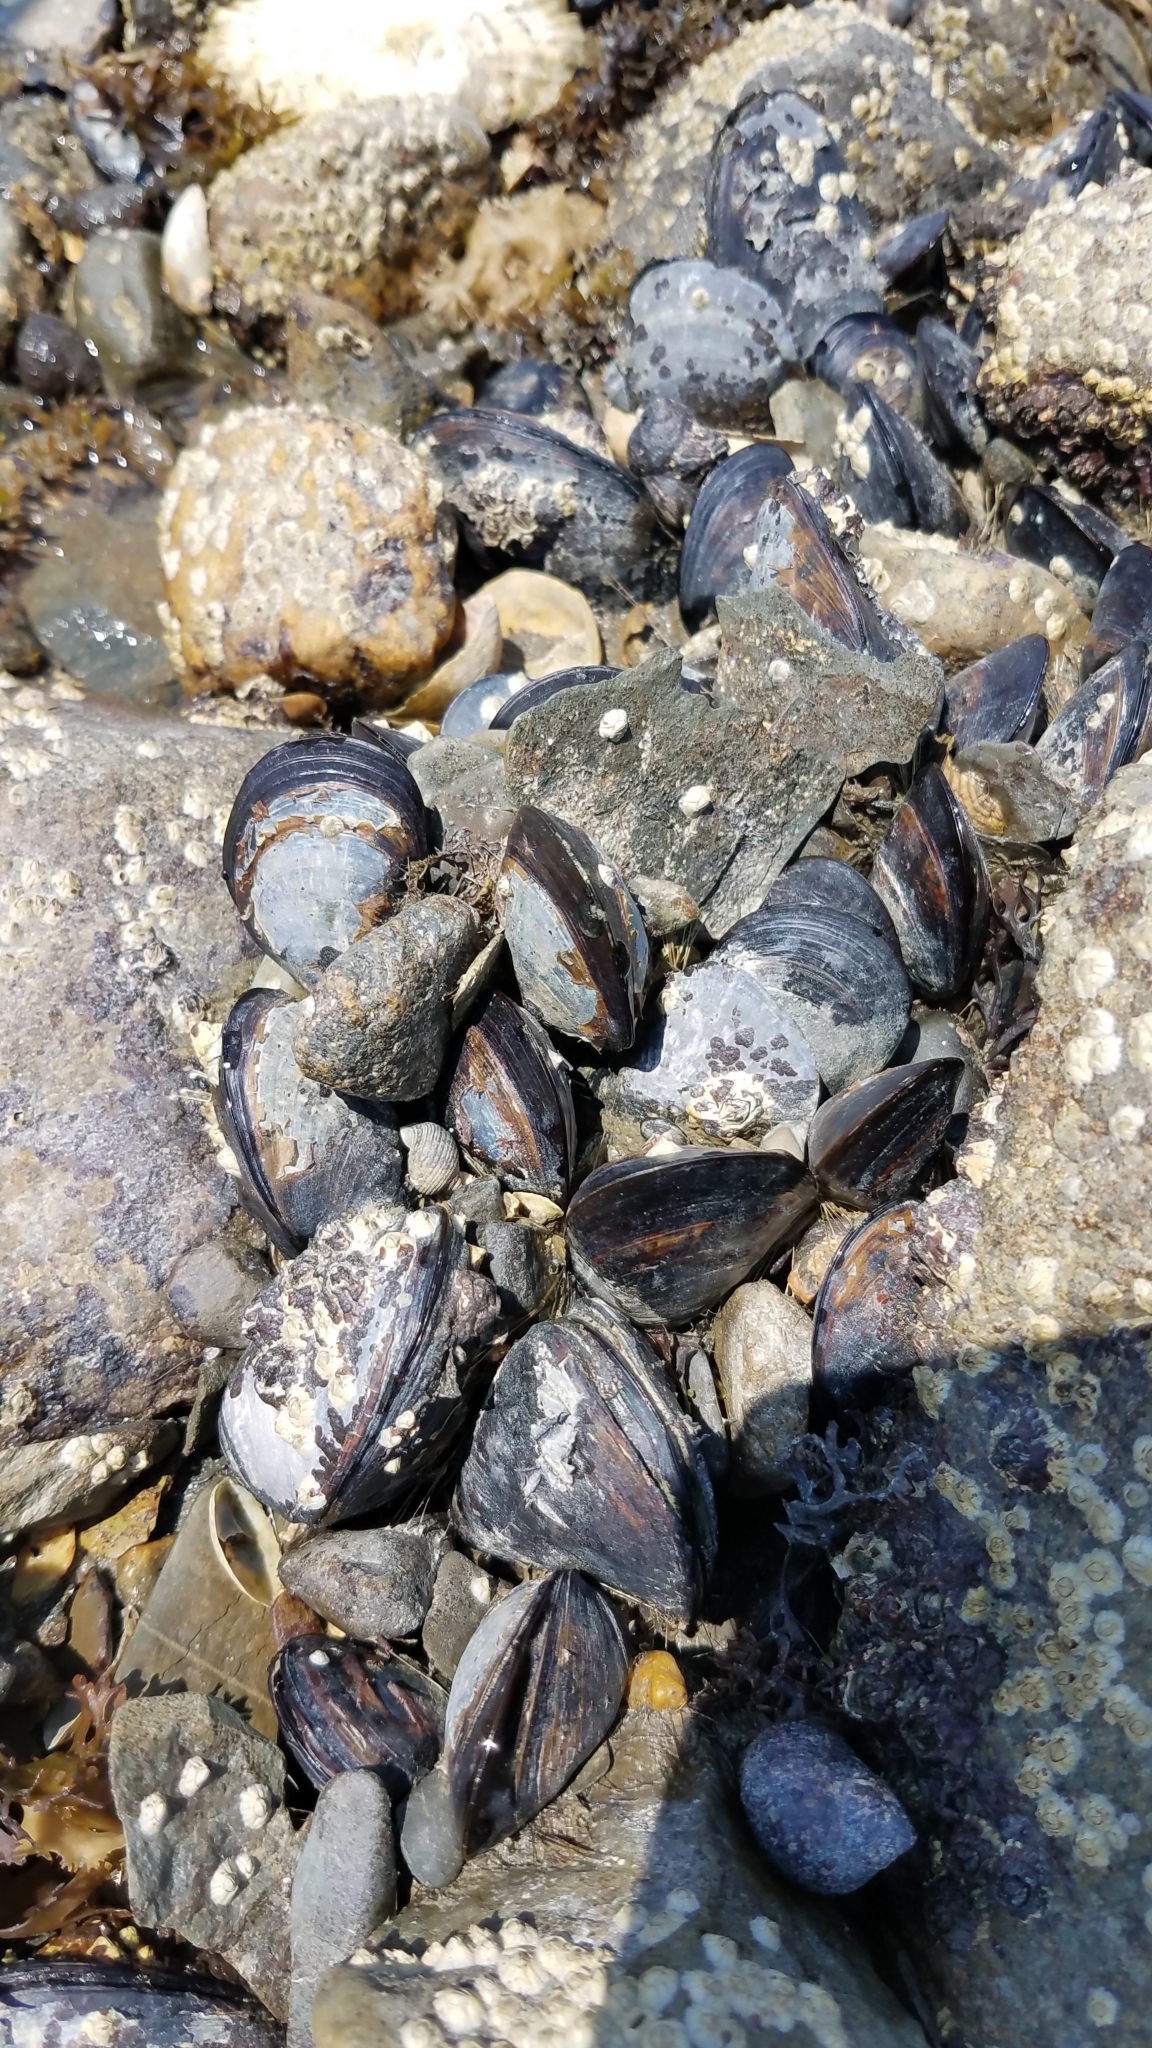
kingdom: Animalia
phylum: Mollusca
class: Bivalvia
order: Mytilida
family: Mytilidae
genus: Mytilus
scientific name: Mytilus edulis
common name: Blue mussel
